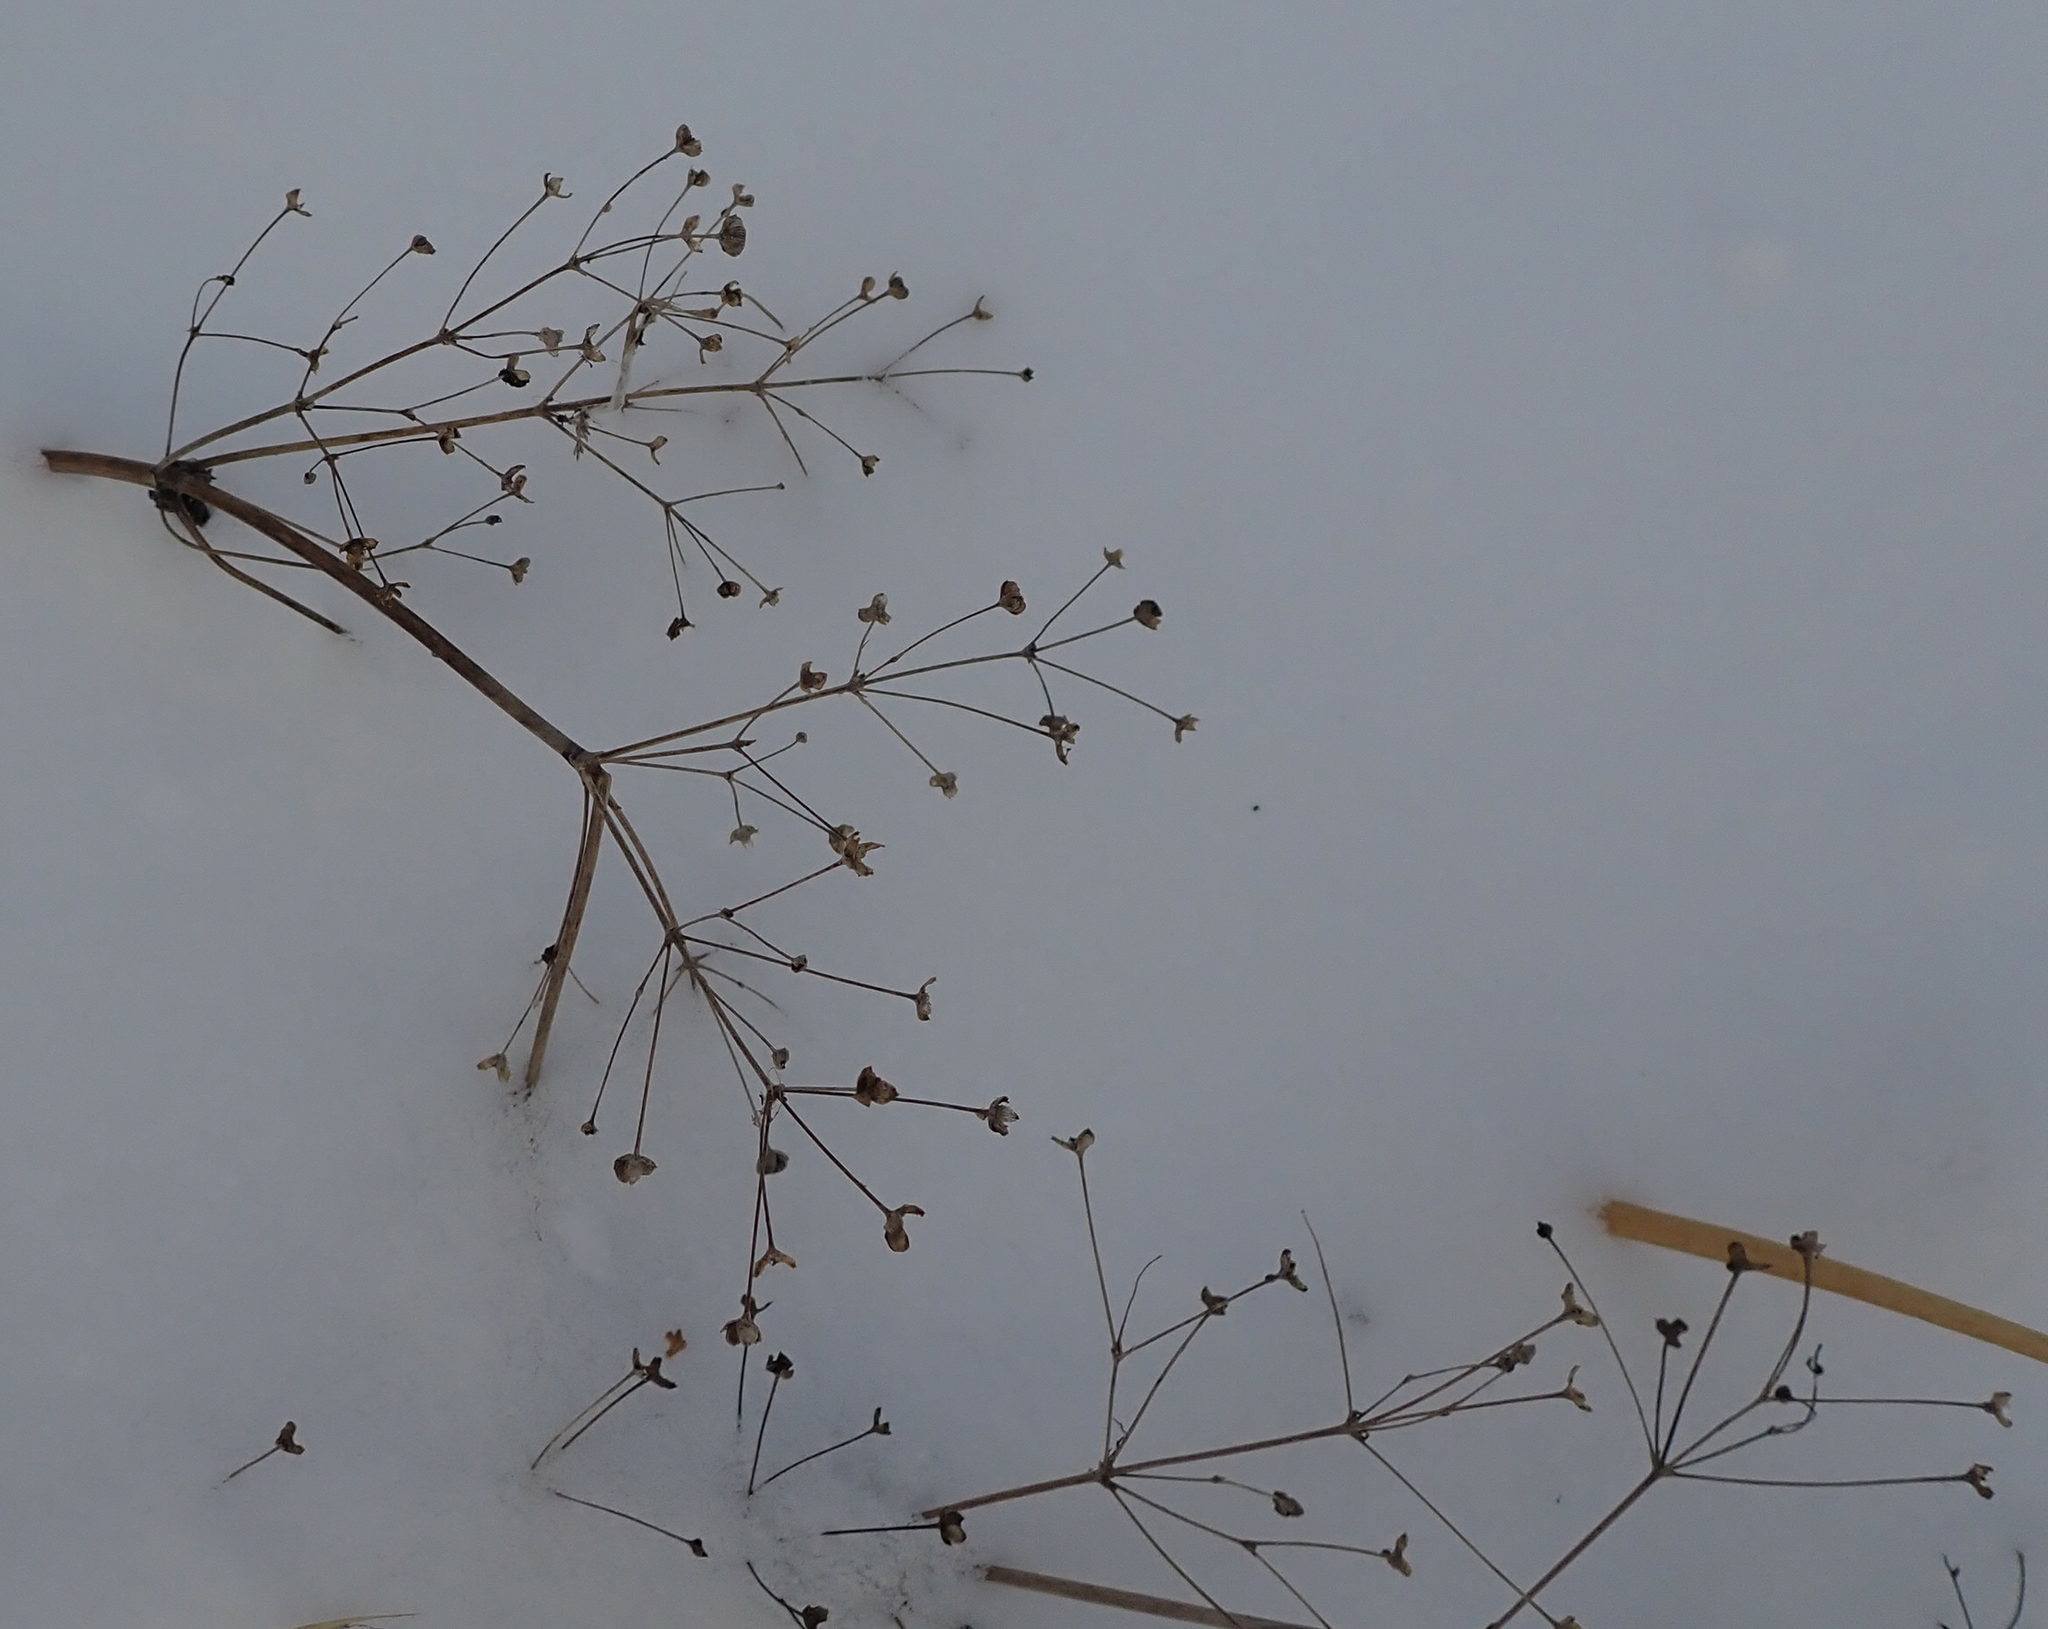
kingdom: Plantae
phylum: Tracheophyta
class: Liliopsida
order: Alismatales
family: Alismataceae
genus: Alisma
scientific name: Alisma triviale
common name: Northern water-plantain
